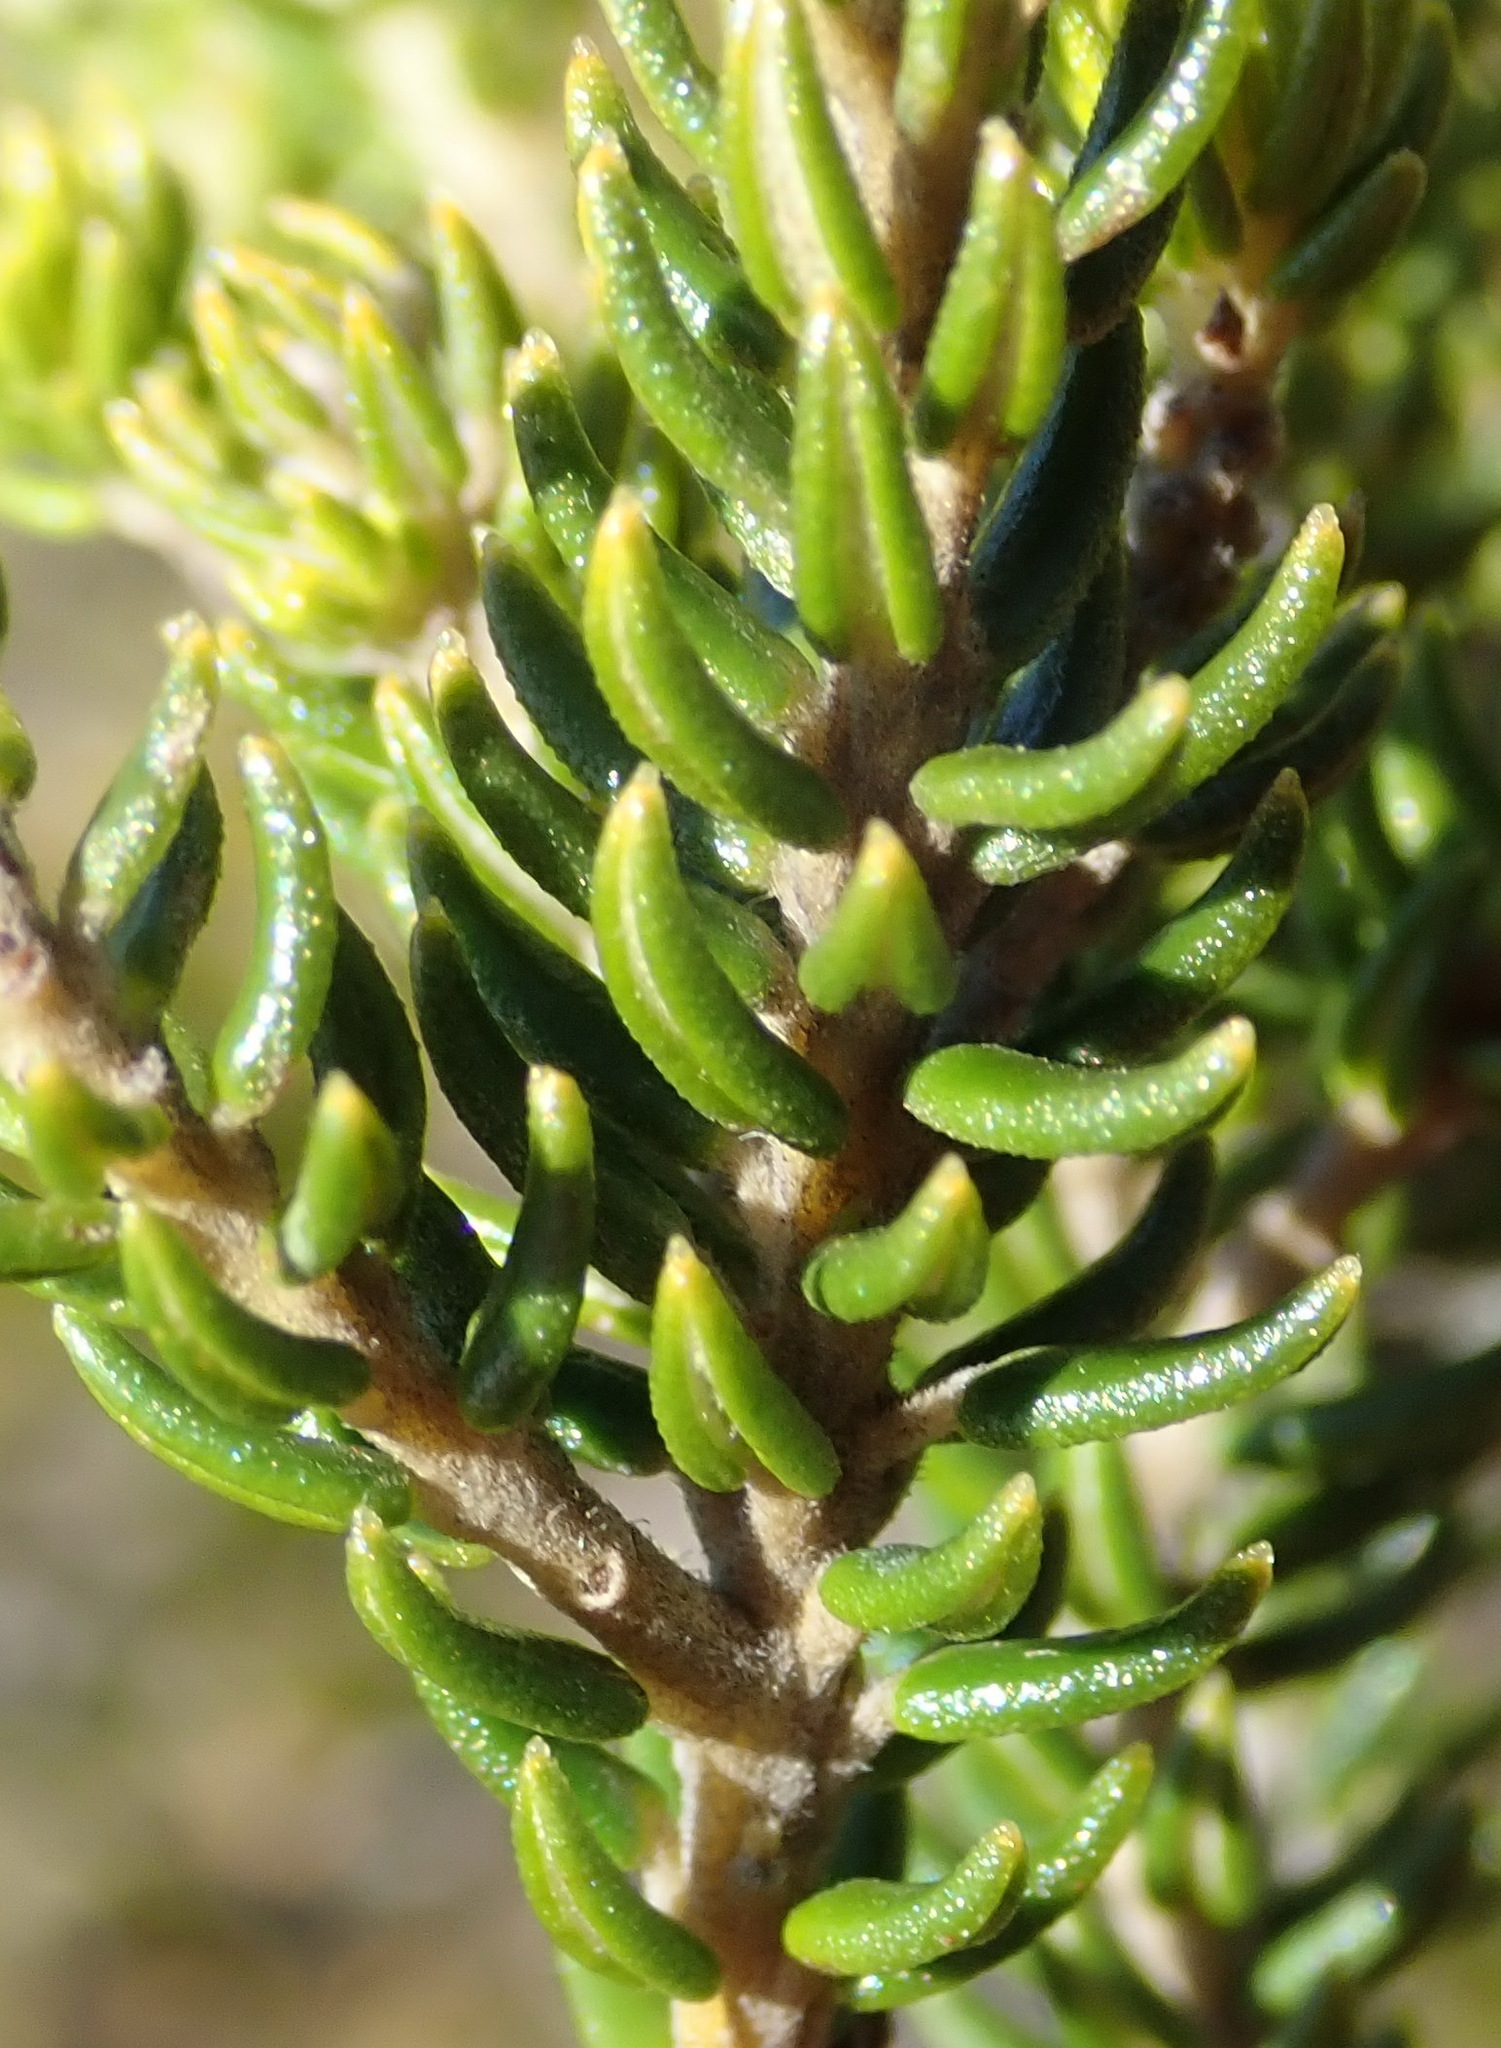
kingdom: Plantae
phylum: Tracheophyta
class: Magnoliopsida
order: Rosales
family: Rhamnaceae
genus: Phylica
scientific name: Phylica axillaris
